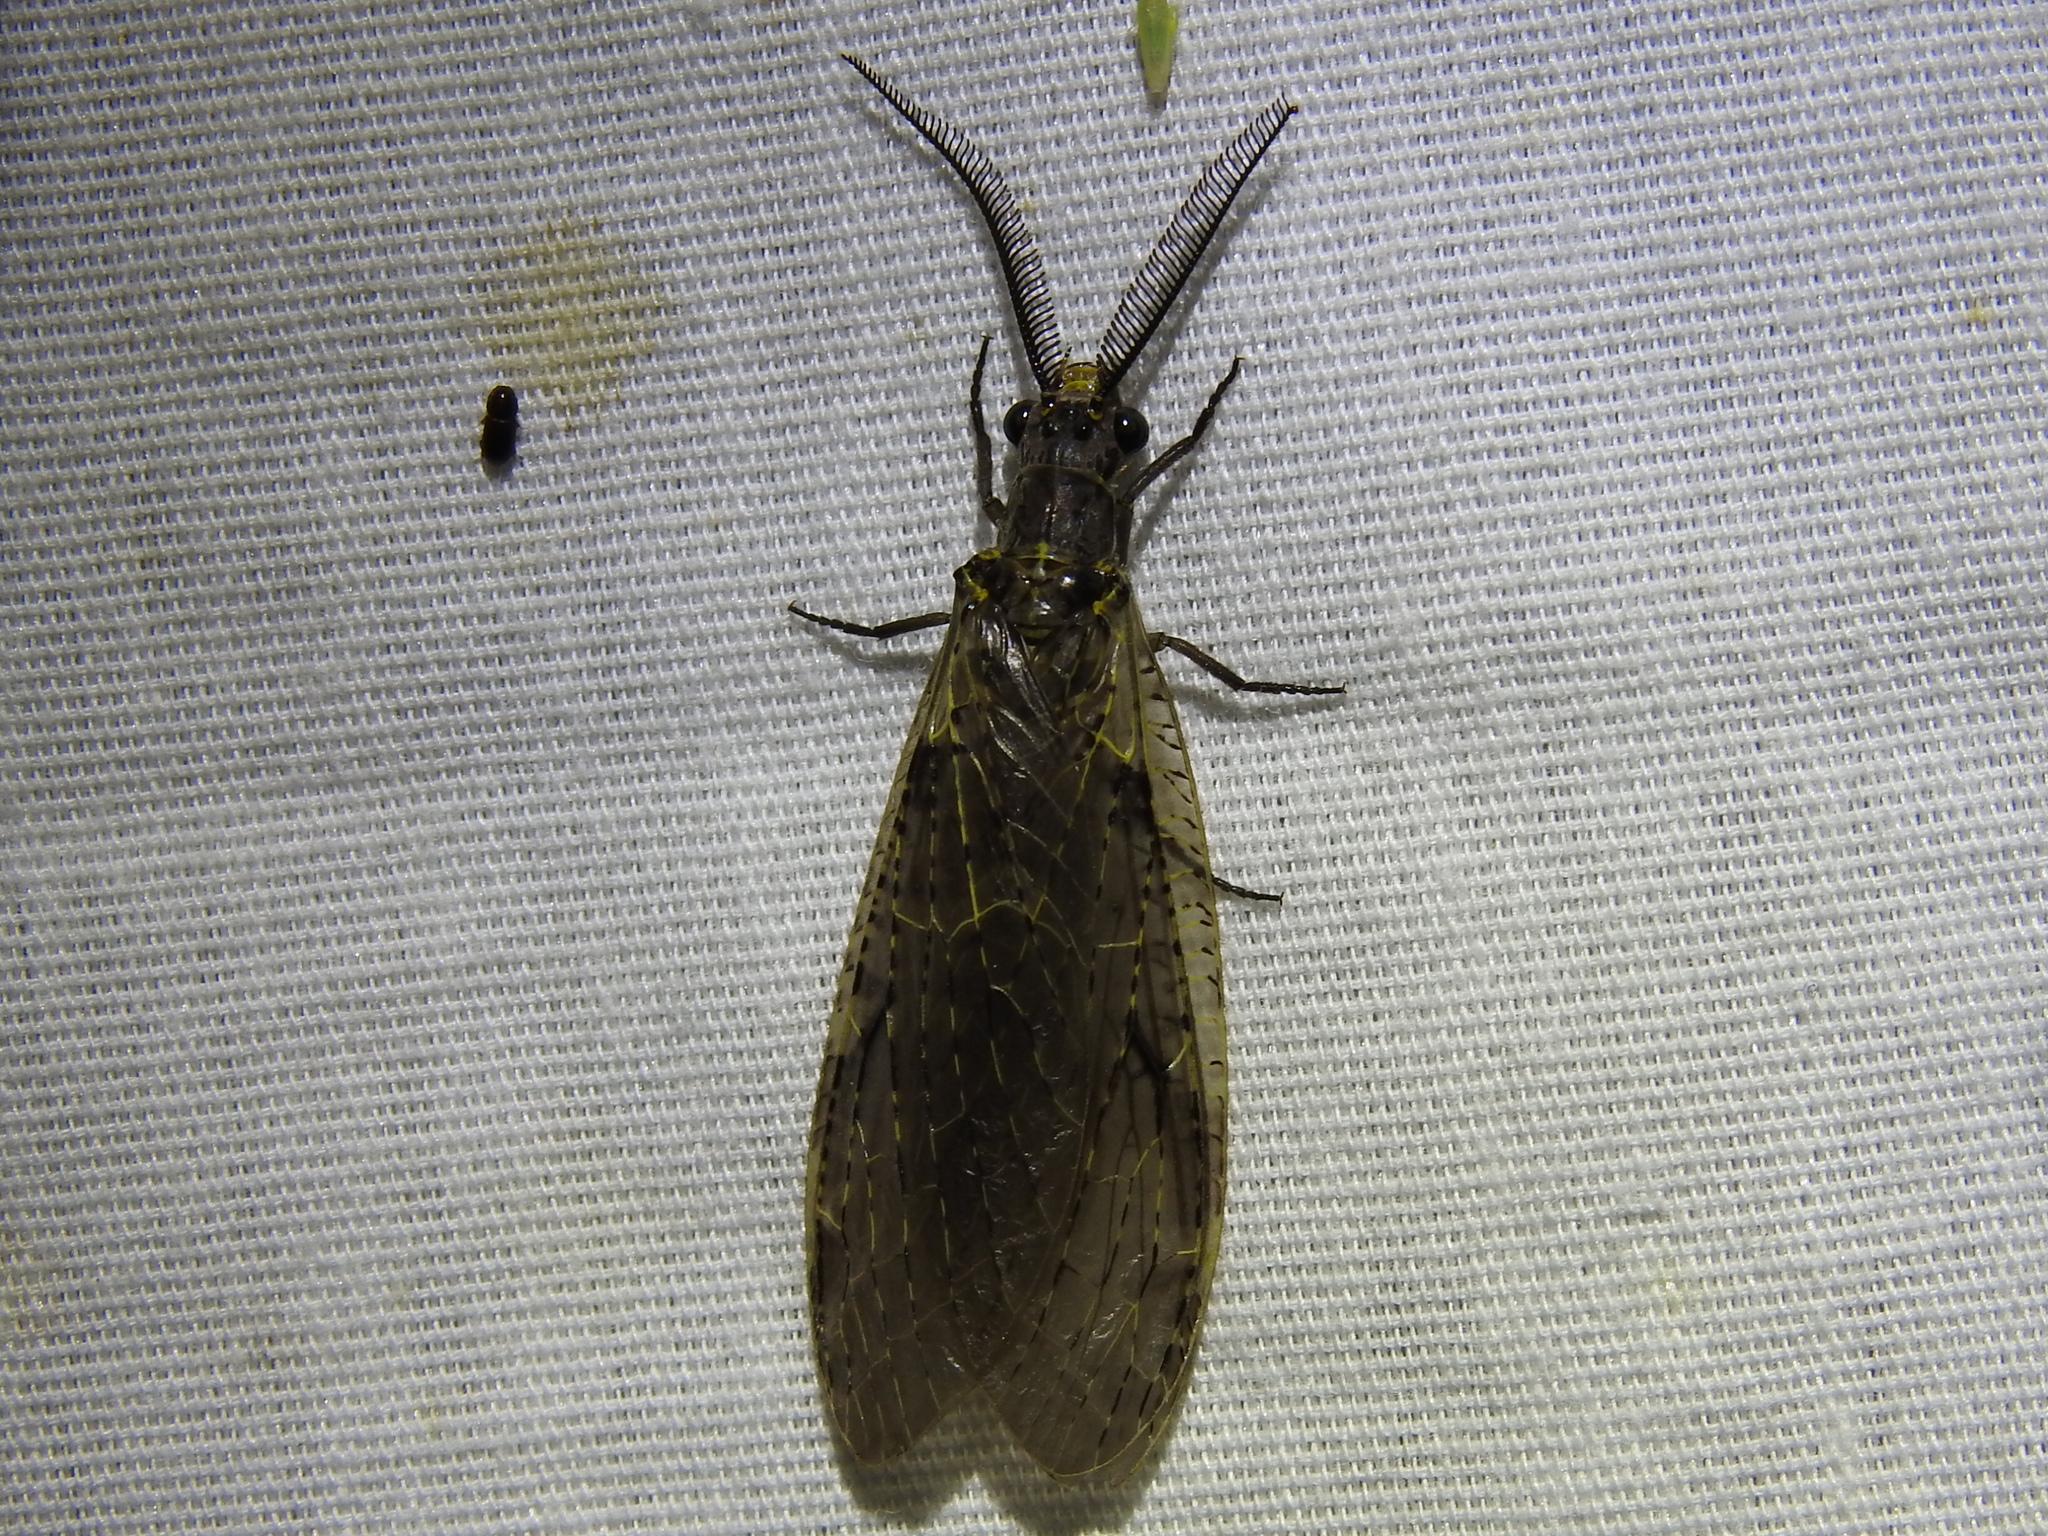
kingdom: Animalia
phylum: Arthropoda
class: Insecta
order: Megaloptera
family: Corydalidae
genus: Chauliodes
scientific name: Chauliodes rastricornis
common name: Spring fishfly
